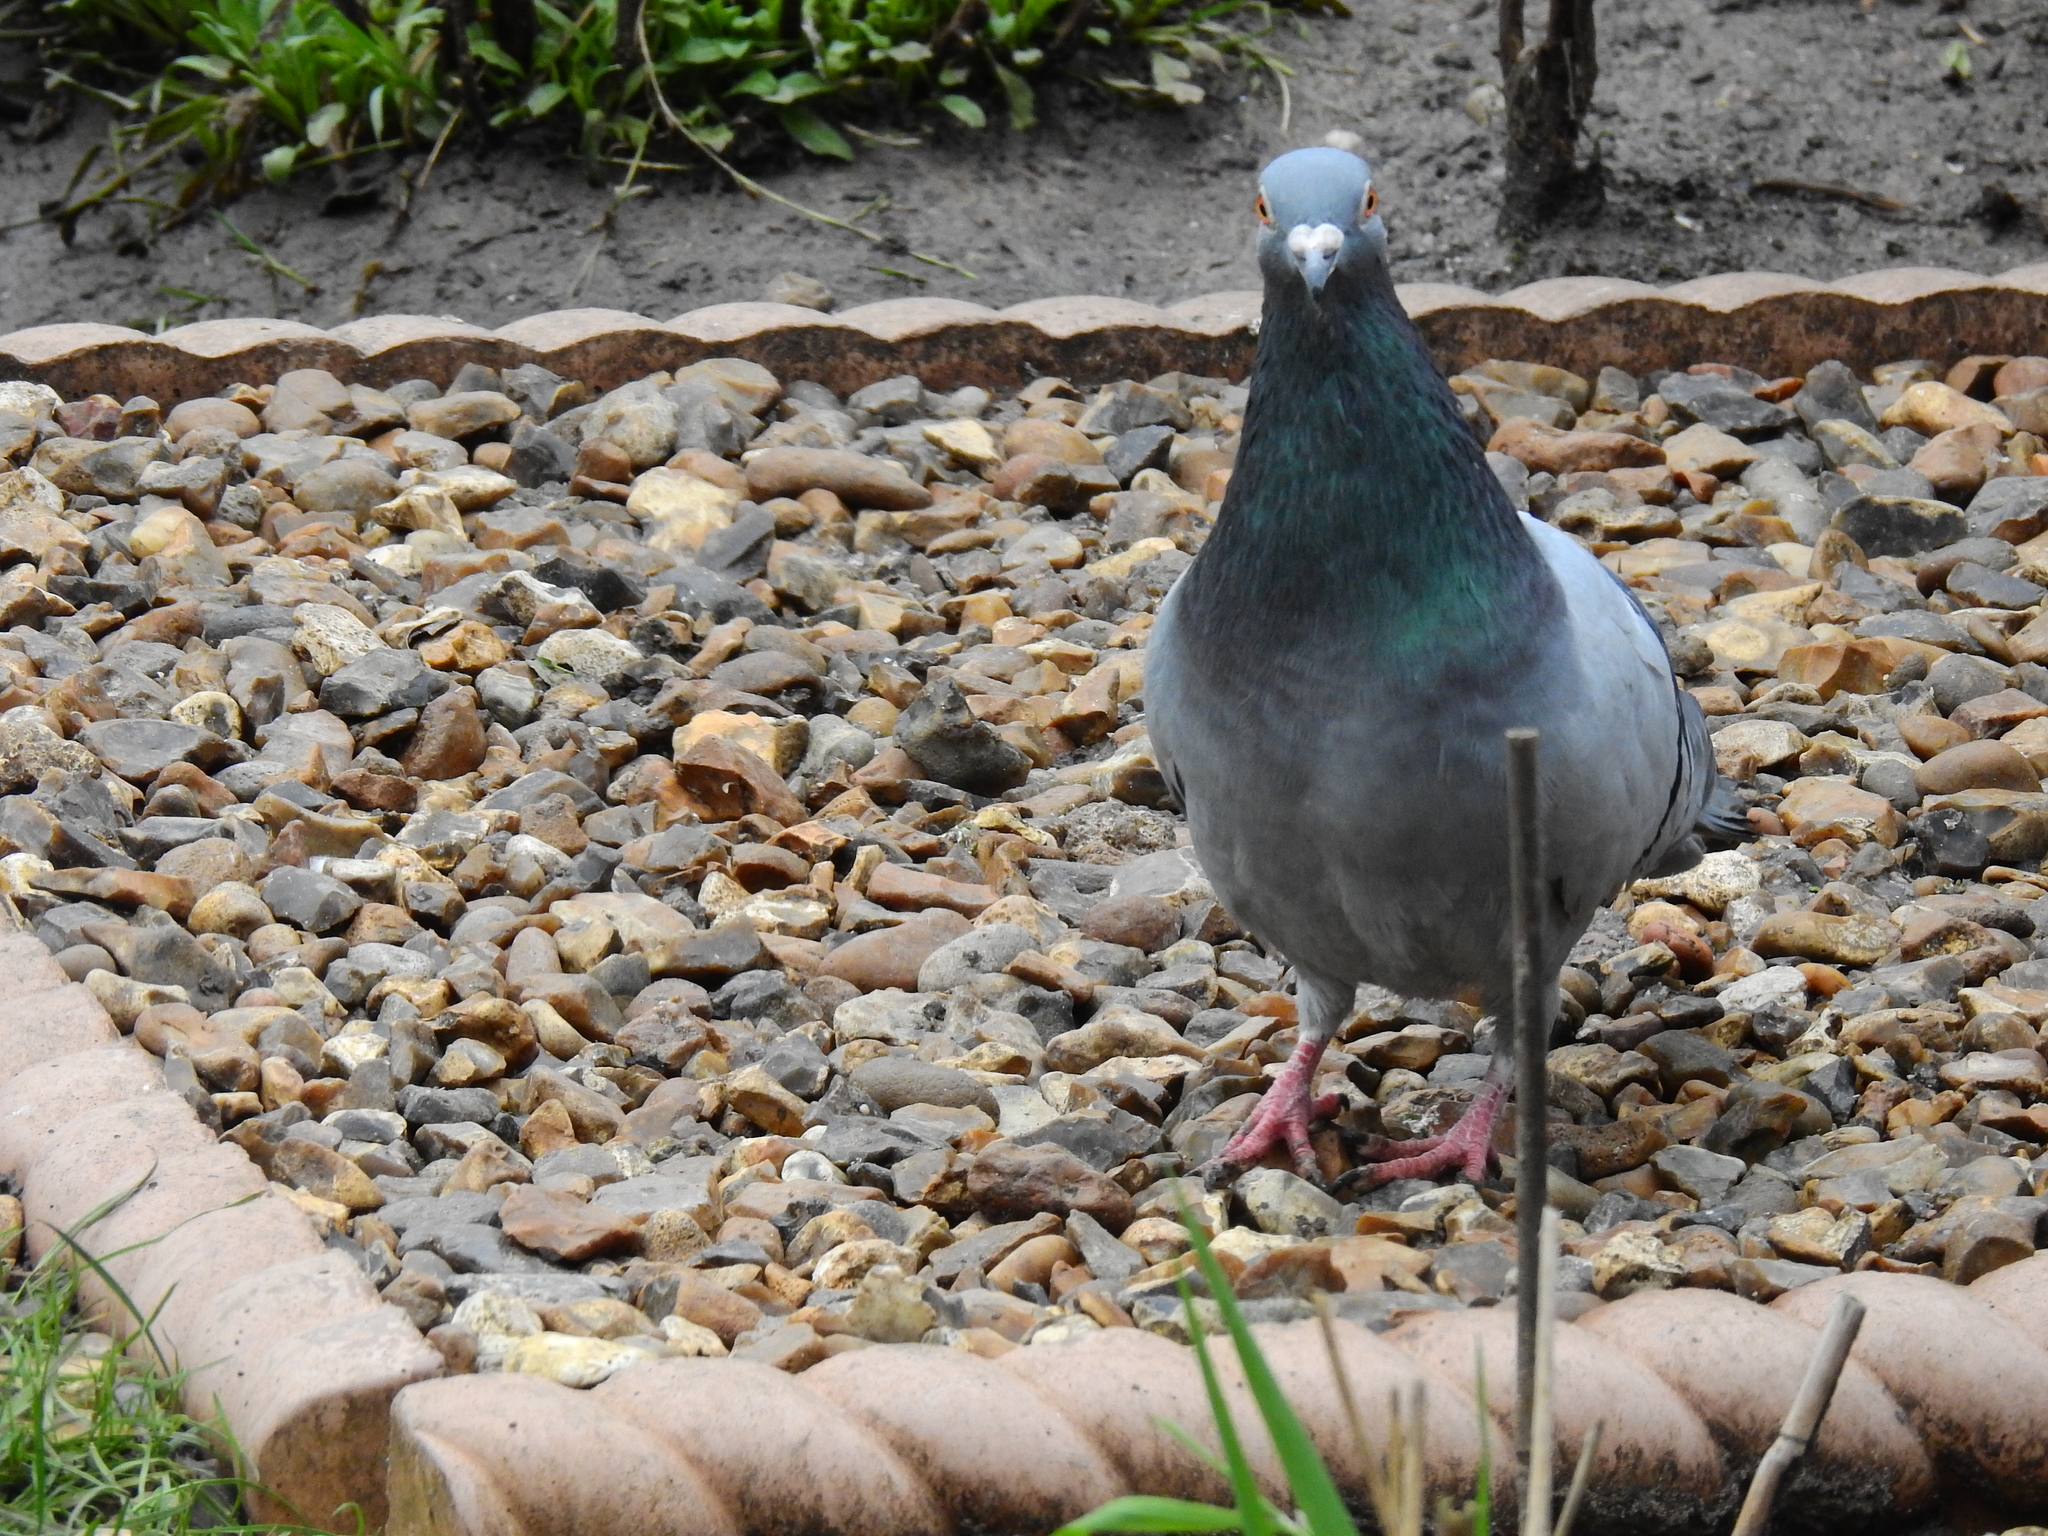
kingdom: Animalia
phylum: Chordata
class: Aves
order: Columbiformes
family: Columbidae
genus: Columba
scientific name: Columba livia
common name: Rock pigeon
